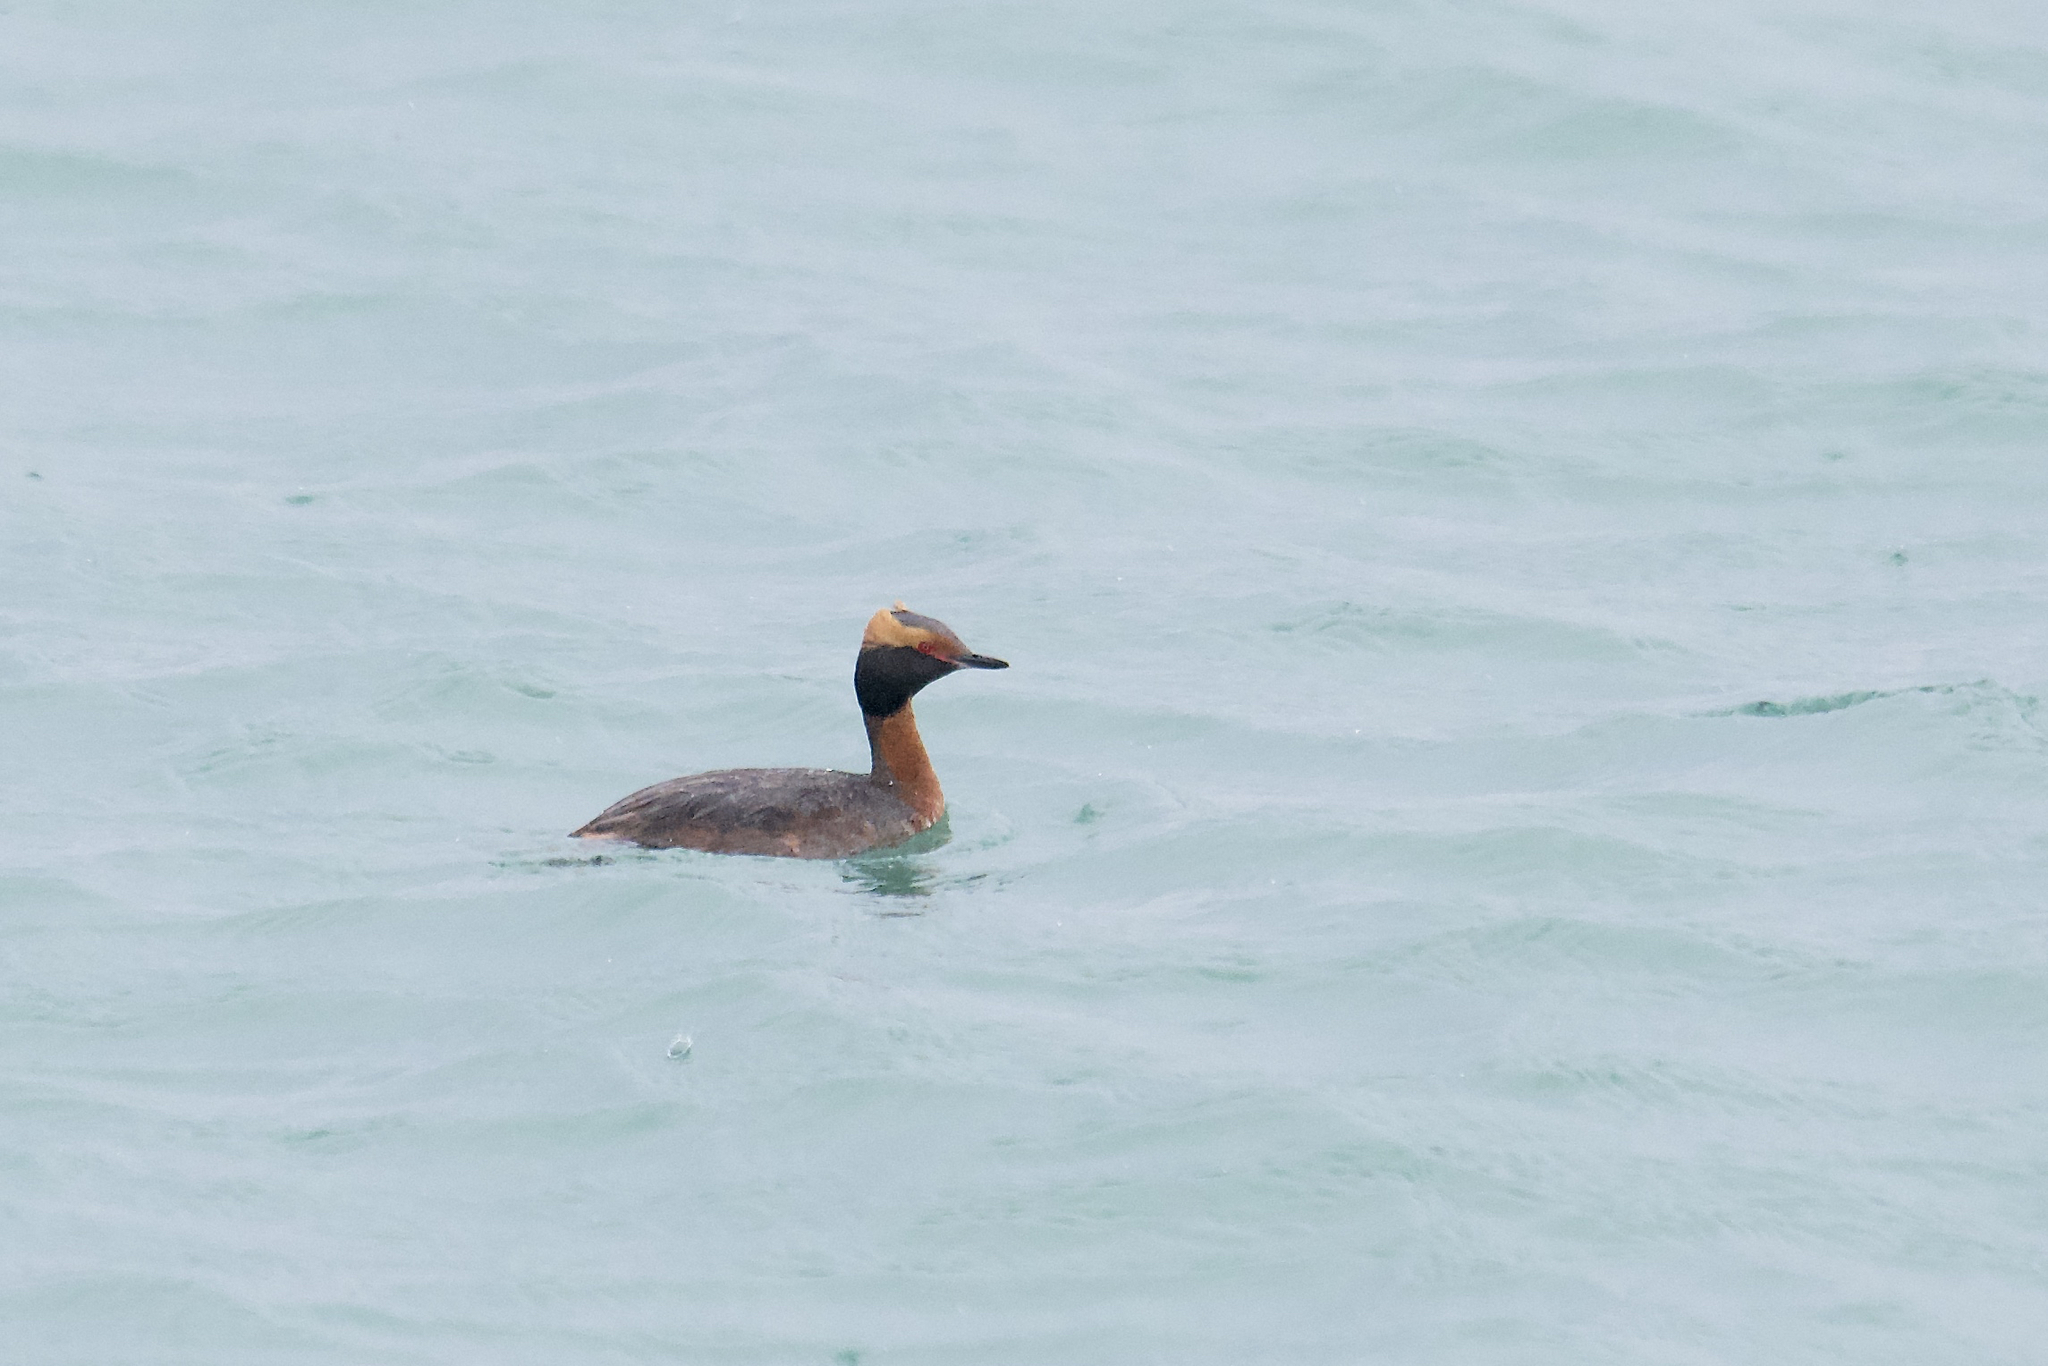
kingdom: Animalia
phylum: Chordata
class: Aves
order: Podicipediformes
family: Podicipedidae
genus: Podiceps
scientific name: Podiceps auritus
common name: Horned grebe
